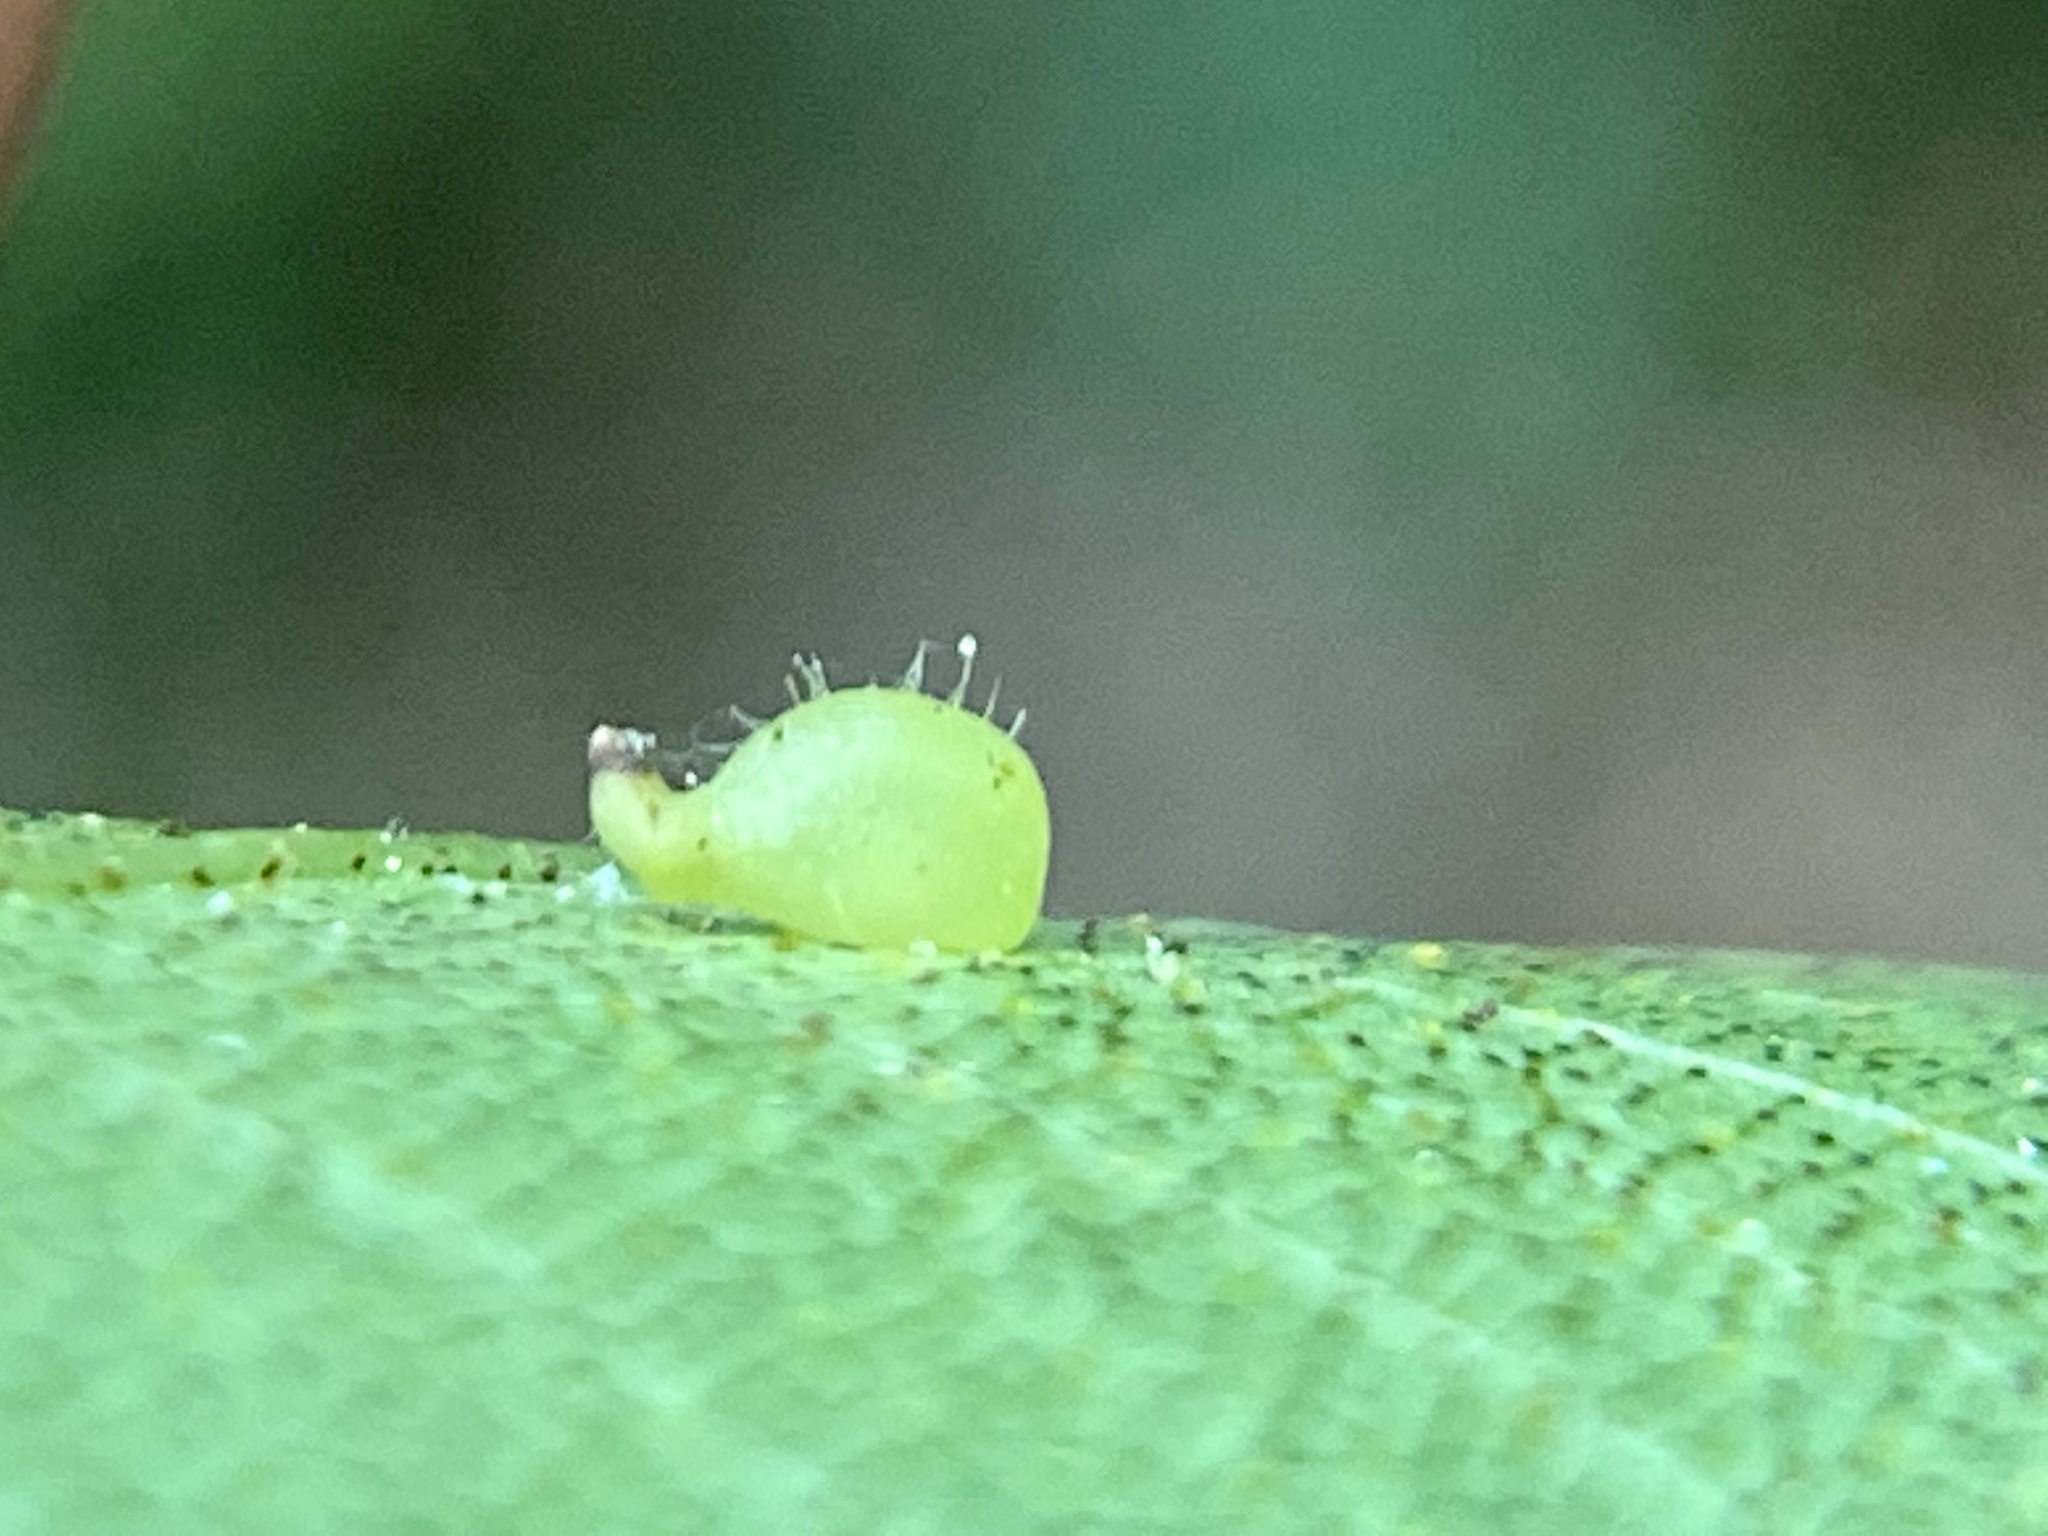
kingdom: Animalia
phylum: Arthropoda
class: Insecta
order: Diptera
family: Cecidomyiidae
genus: Caryomyia
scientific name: Caryomyia eumaris
